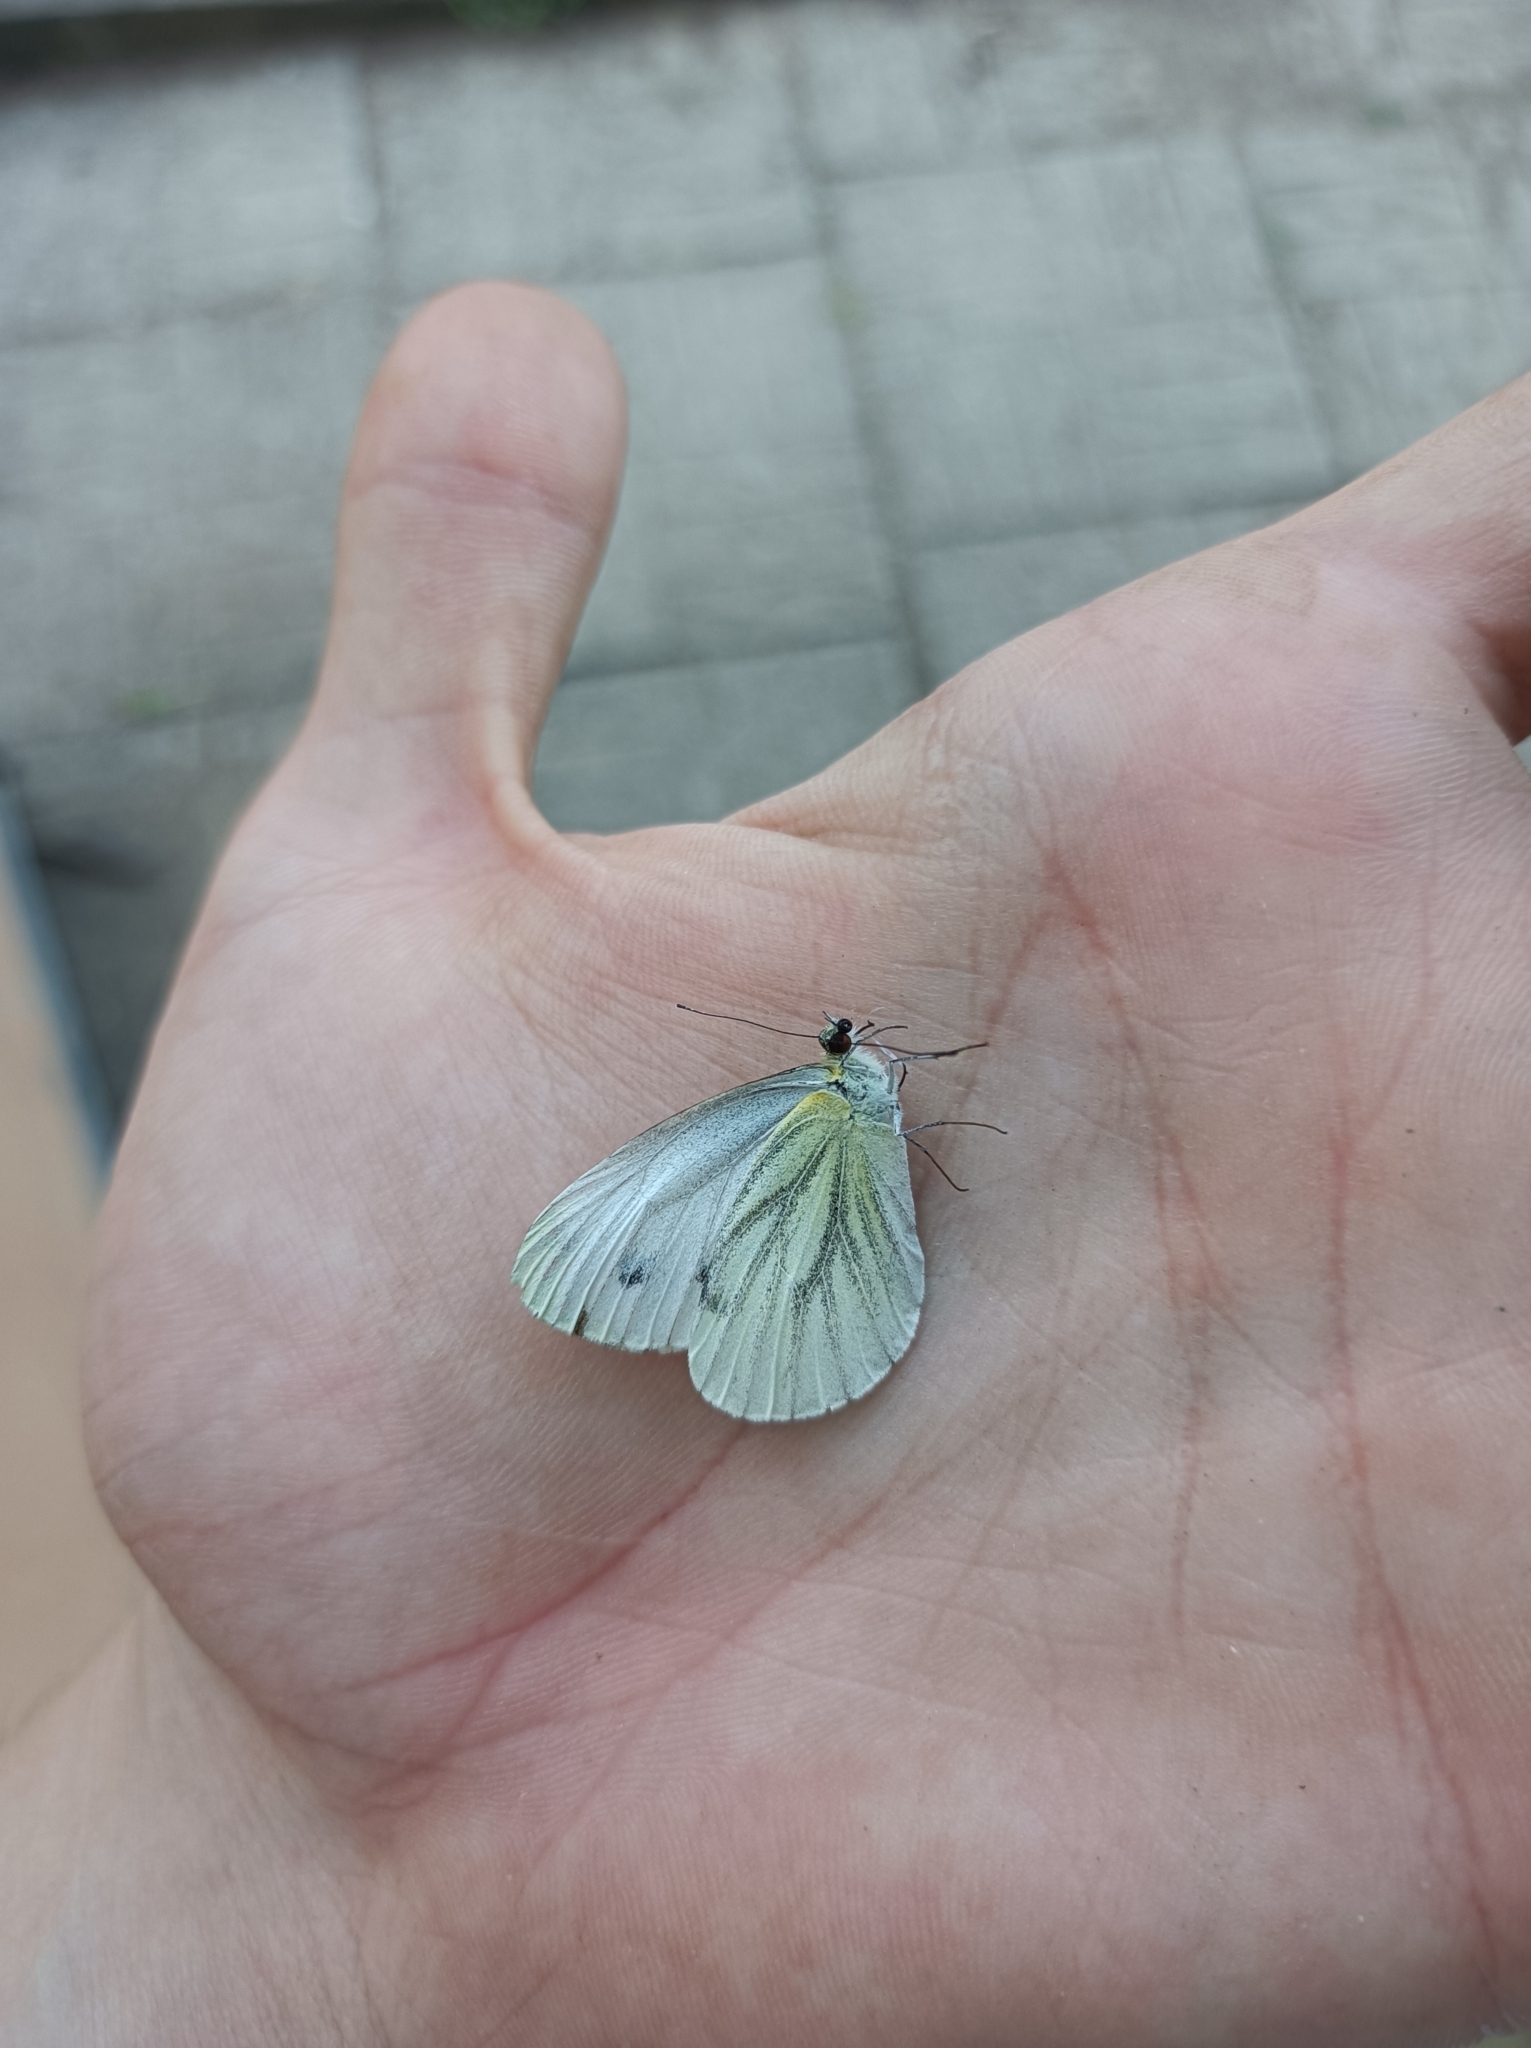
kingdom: Animalia
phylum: Arthropoda
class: Insecta
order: Lepidoptera
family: Pieridae
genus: Pieris
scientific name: Pieris napi
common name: Green-veined white
